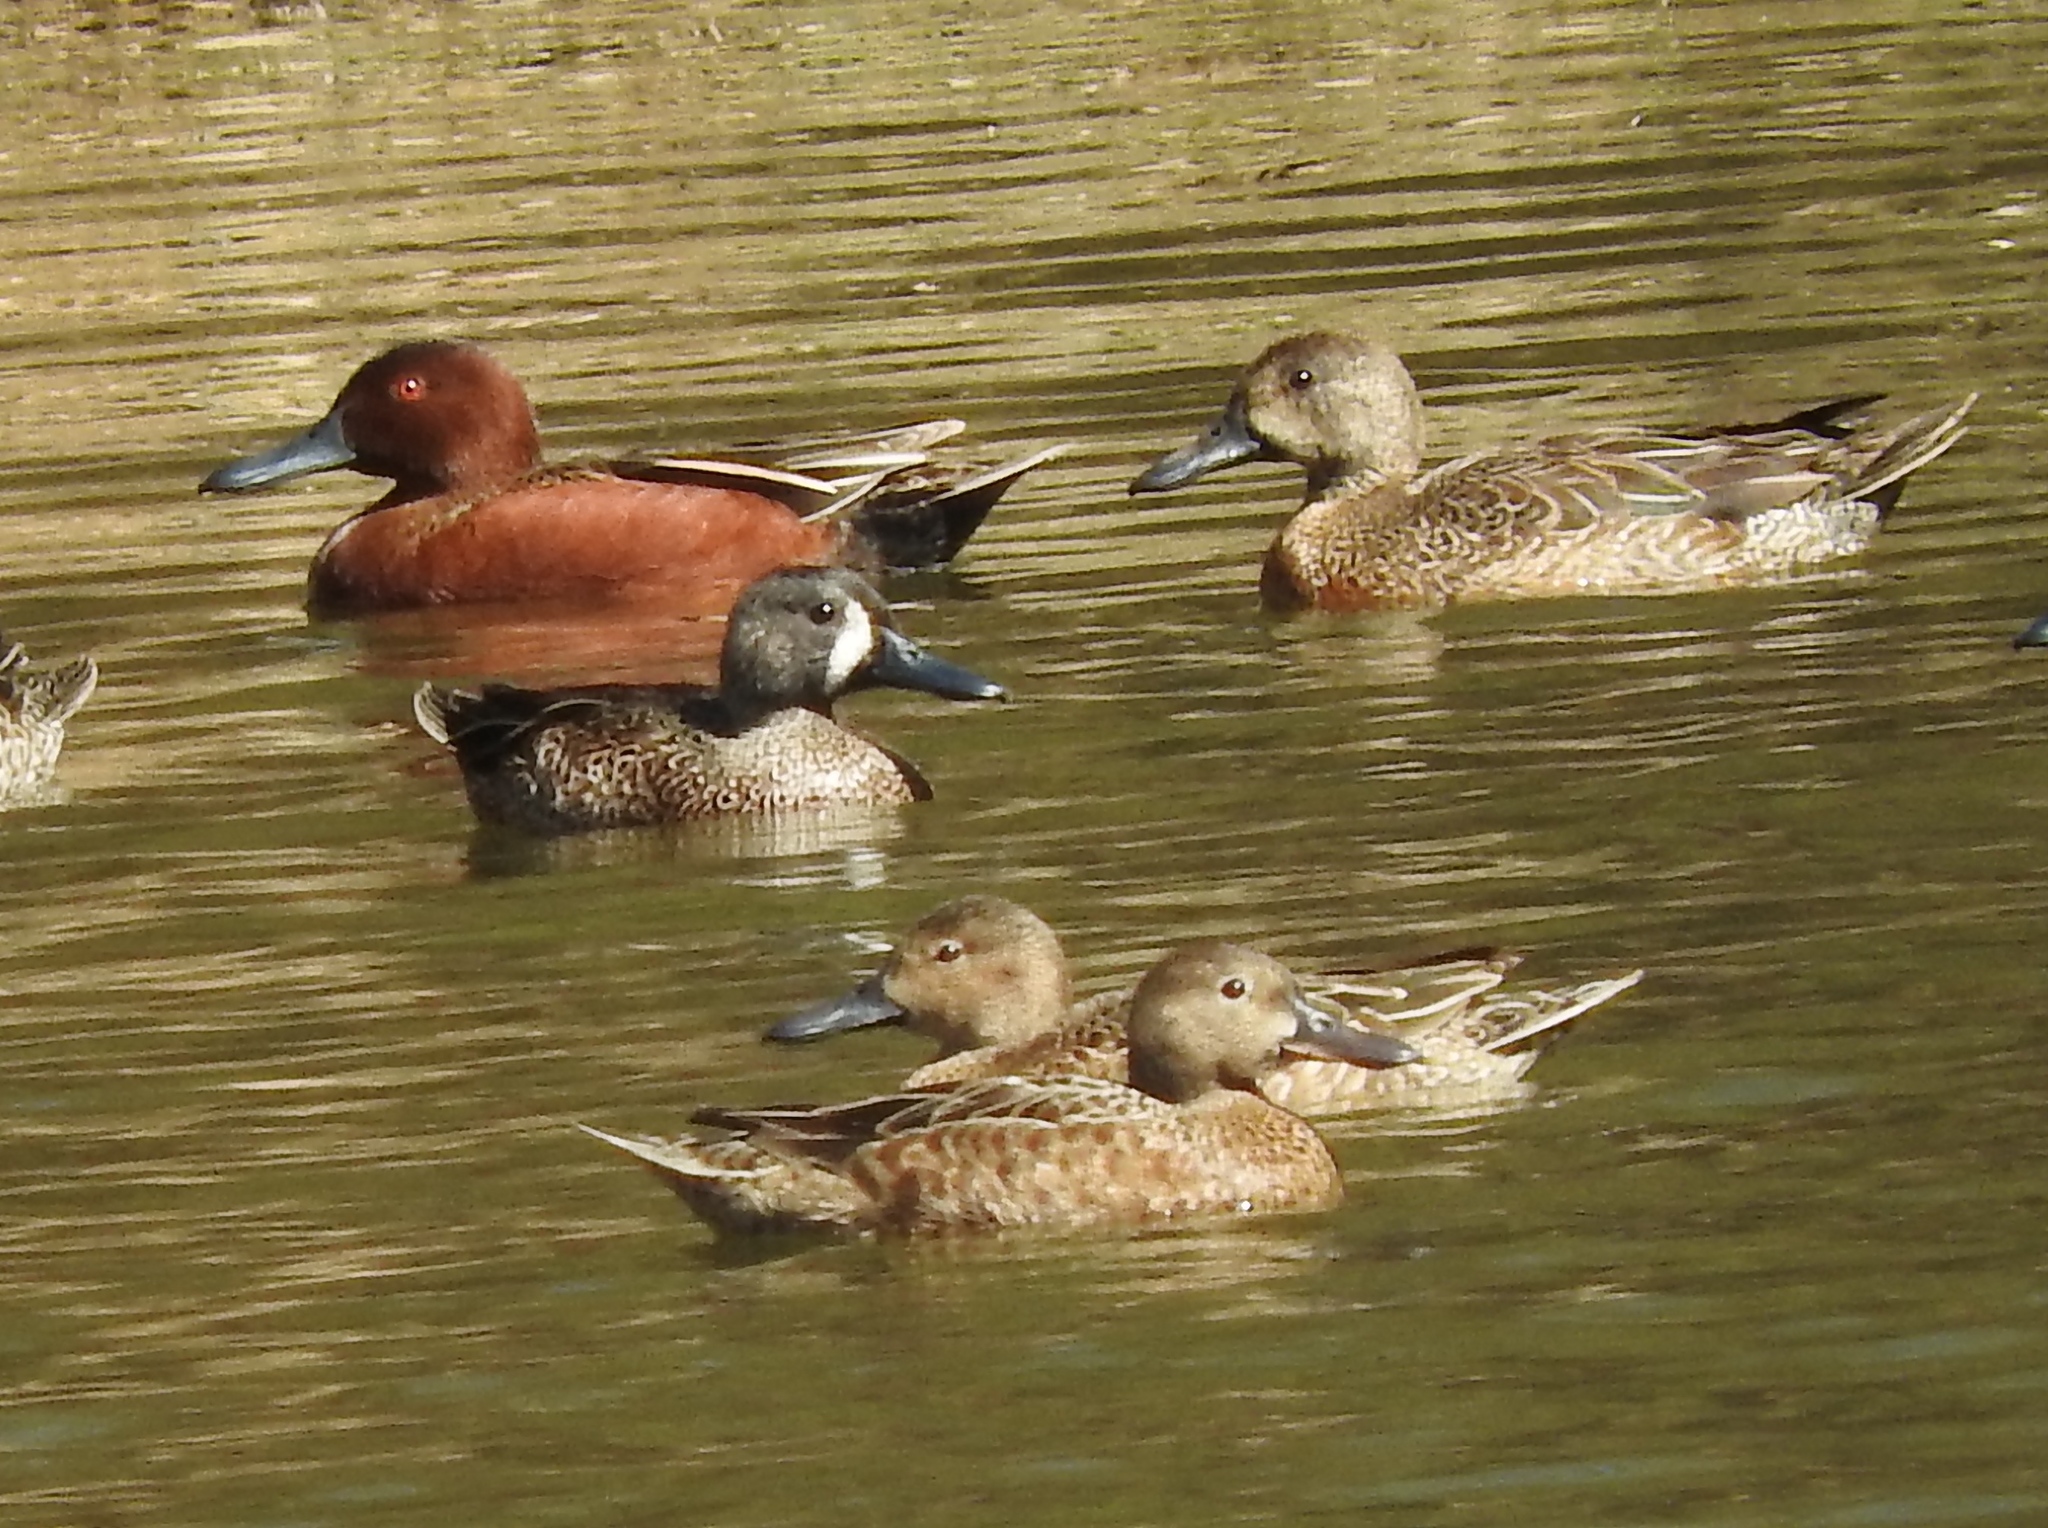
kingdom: Animalia
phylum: Chordata
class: Aves
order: Anseriformes
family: Anatidae
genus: Spatula
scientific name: Spatula cyanoptera
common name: Cinnamon teal
